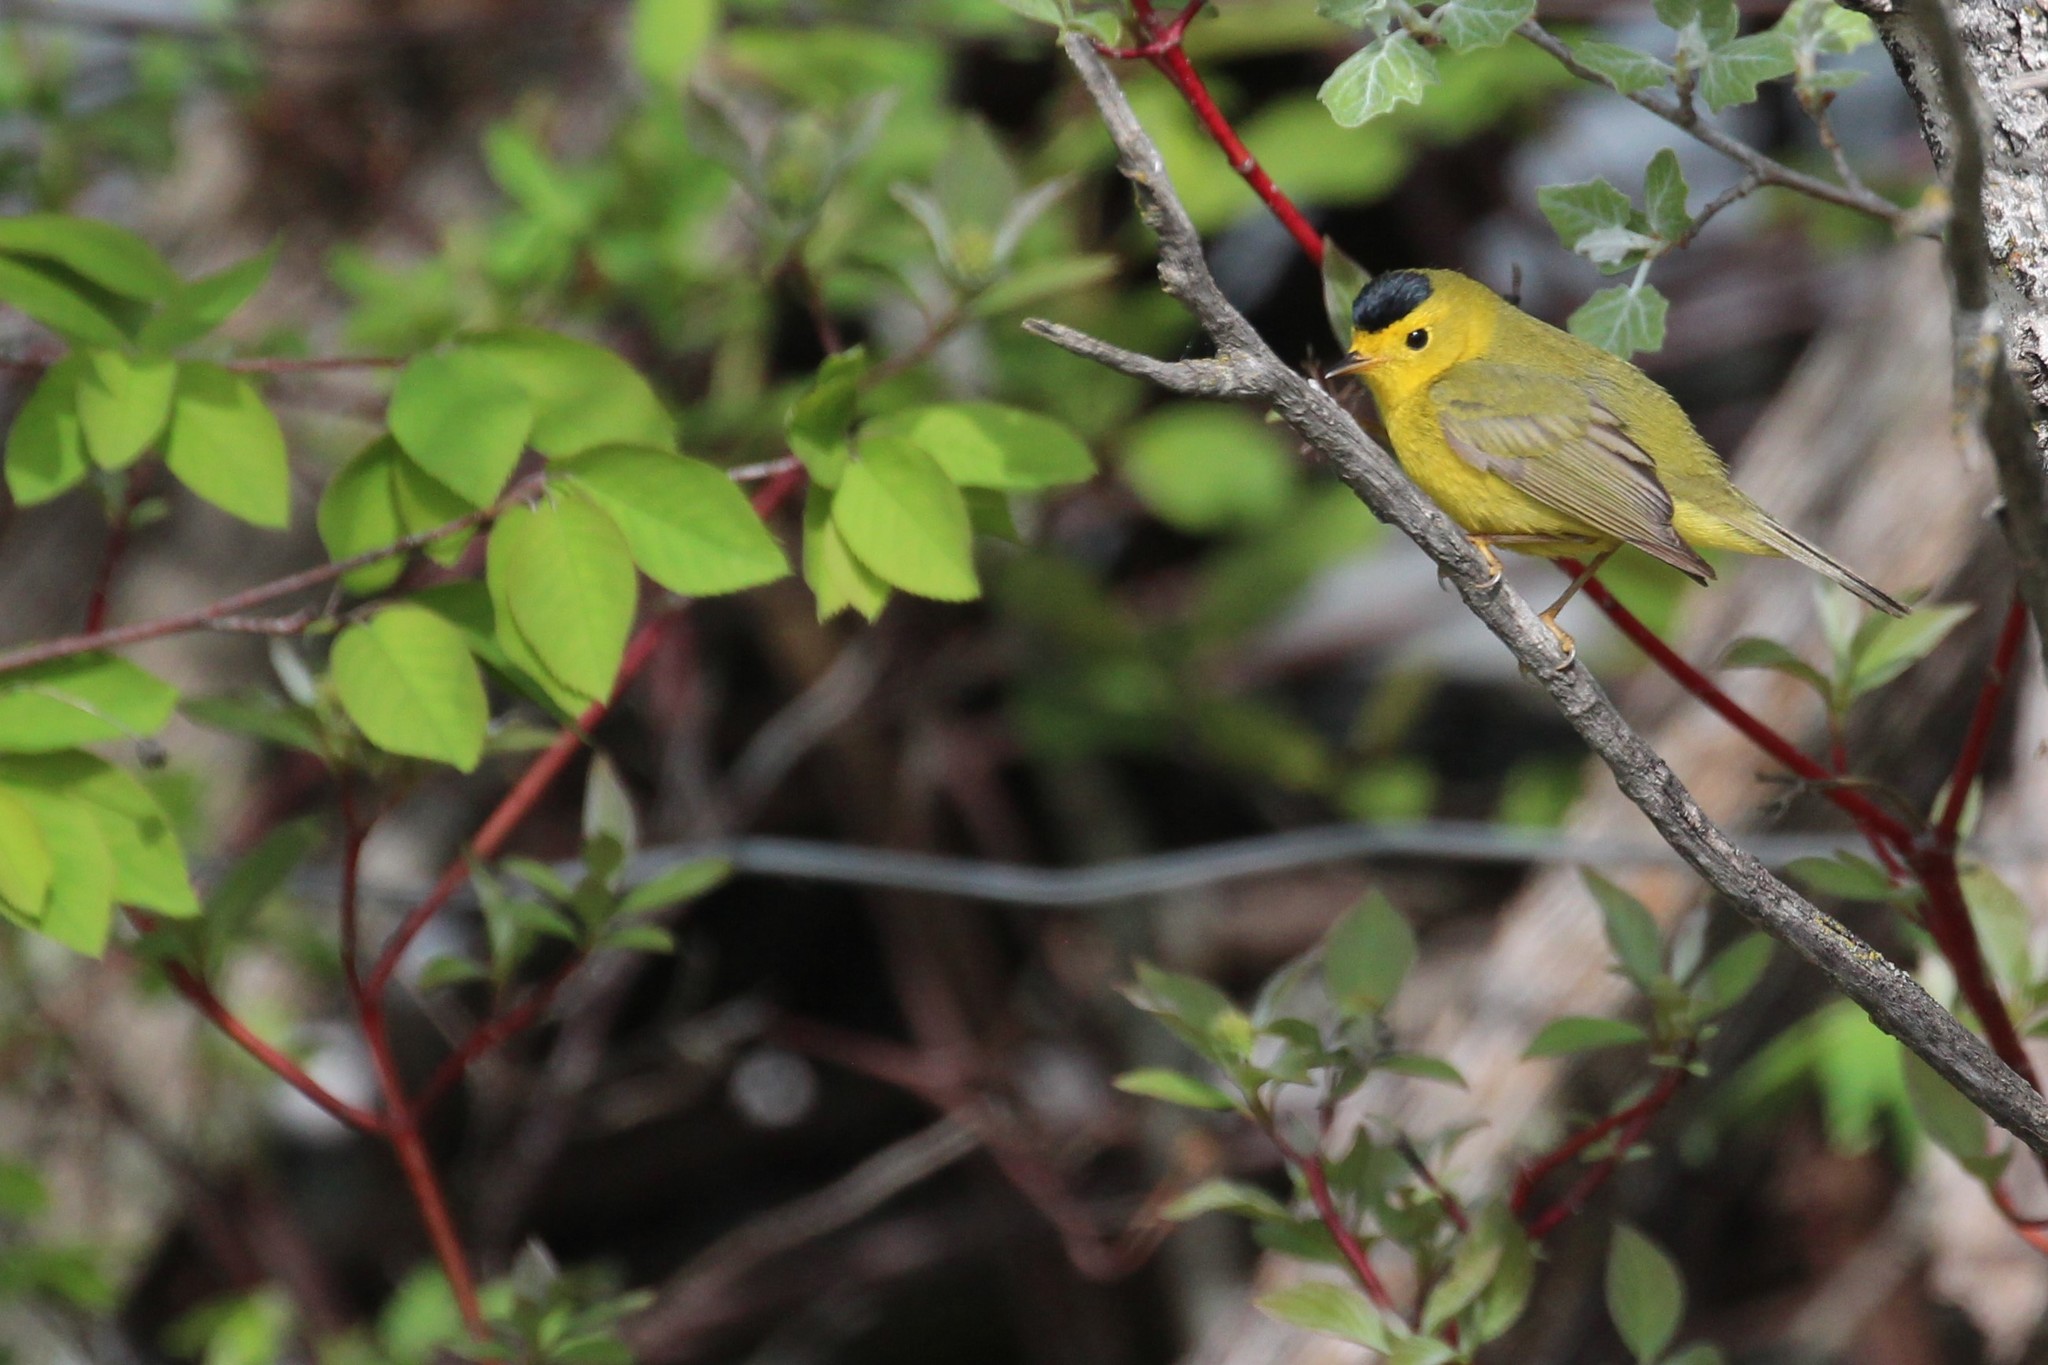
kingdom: Animalia
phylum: Chordata
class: Aves
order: Passeriformes
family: Parulidae
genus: Cardellina
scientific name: Cardellina pusilla
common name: Wilson's warbler
